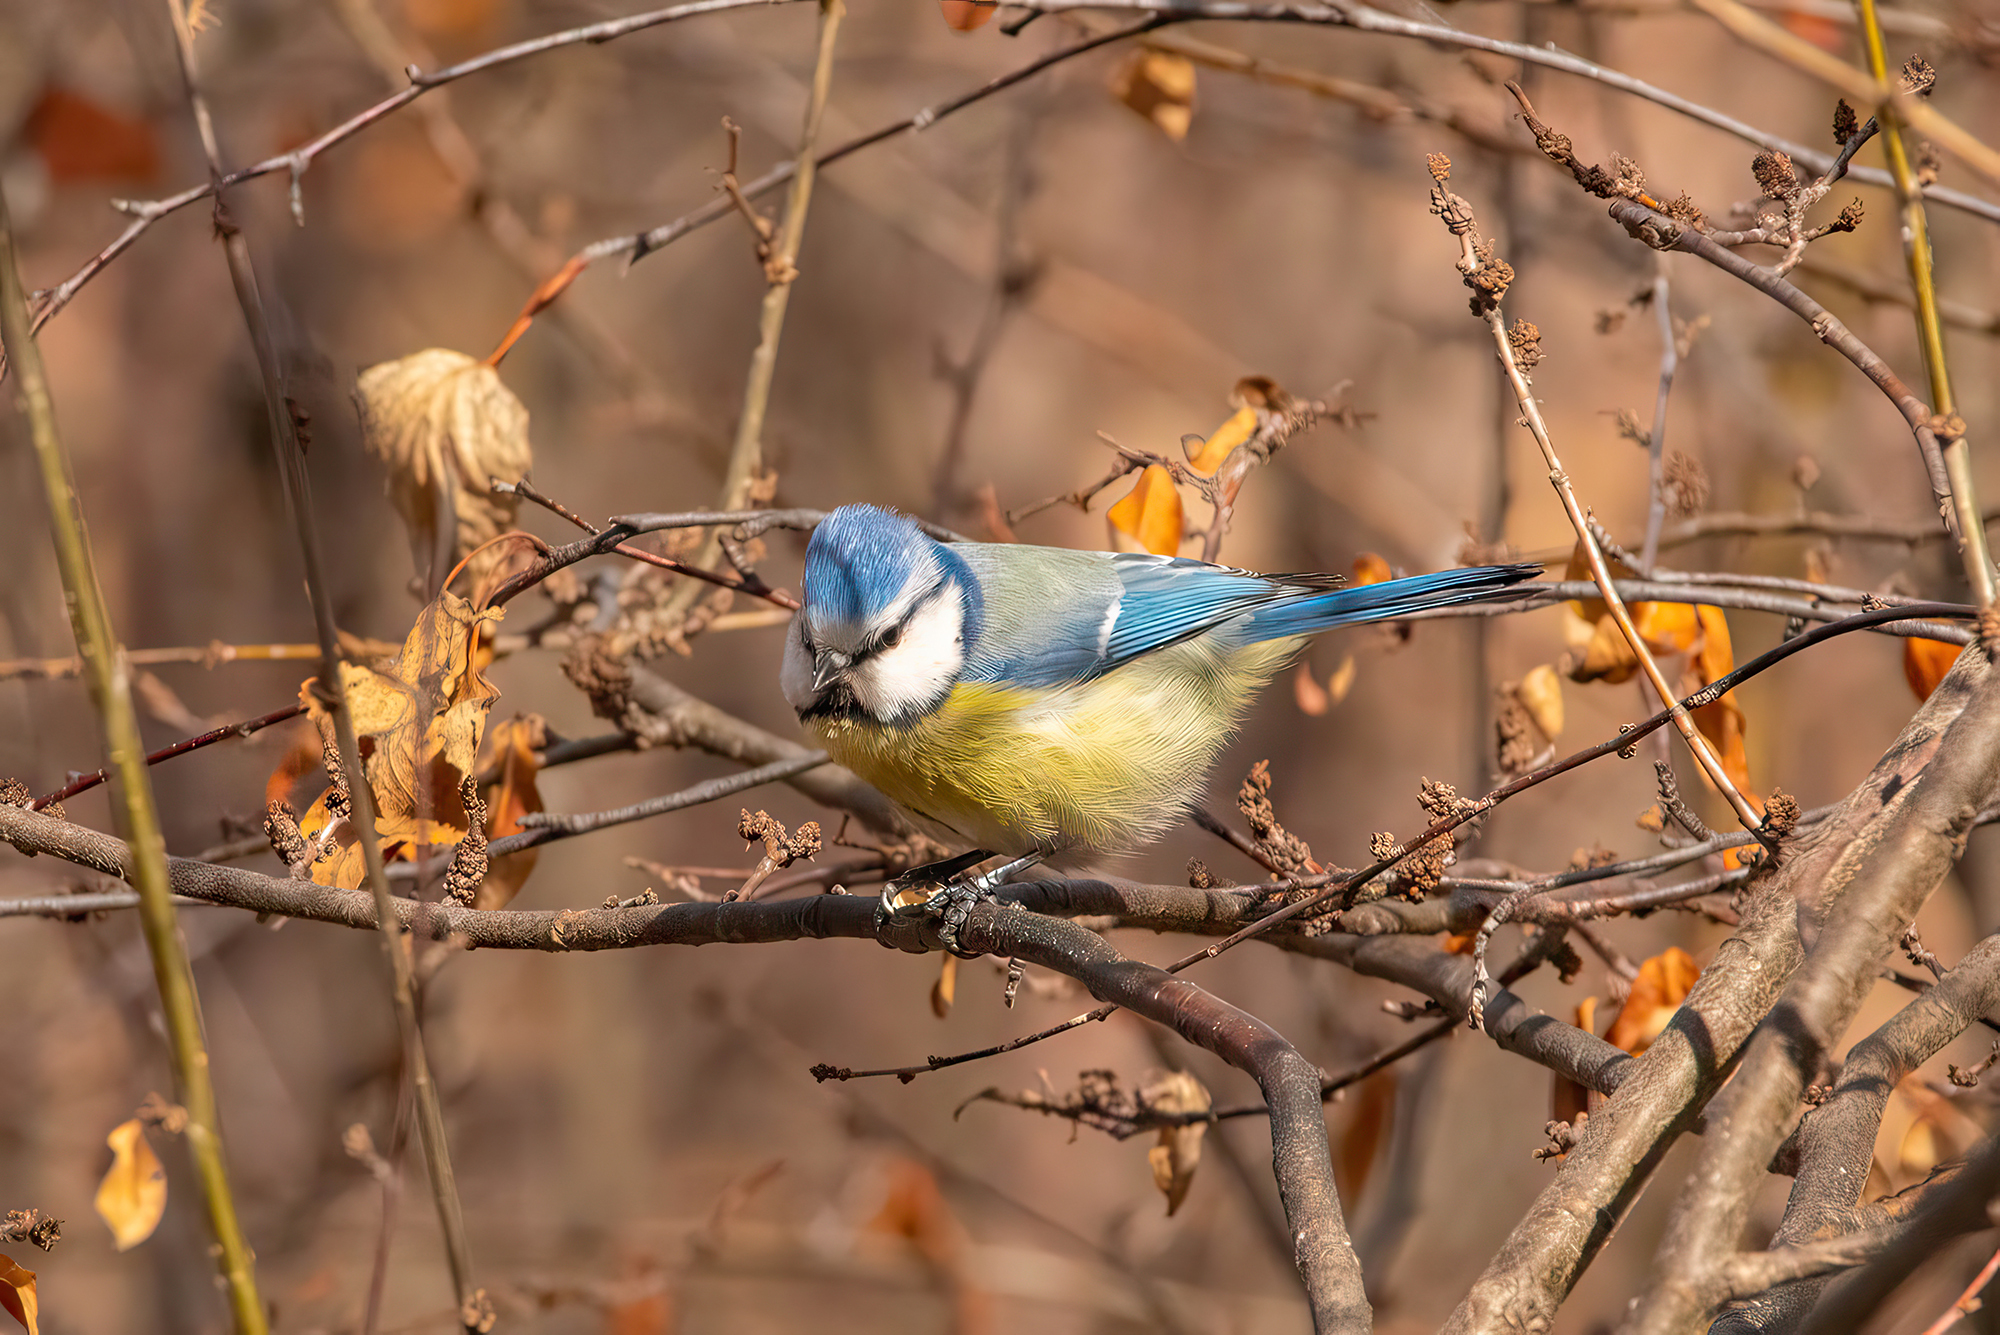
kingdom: Animalia
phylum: Chordata
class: Aves
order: Passeriformes
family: Paridae
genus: Cyanistes
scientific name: Cyanistes caeruleus
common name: Eurasian blue tit
